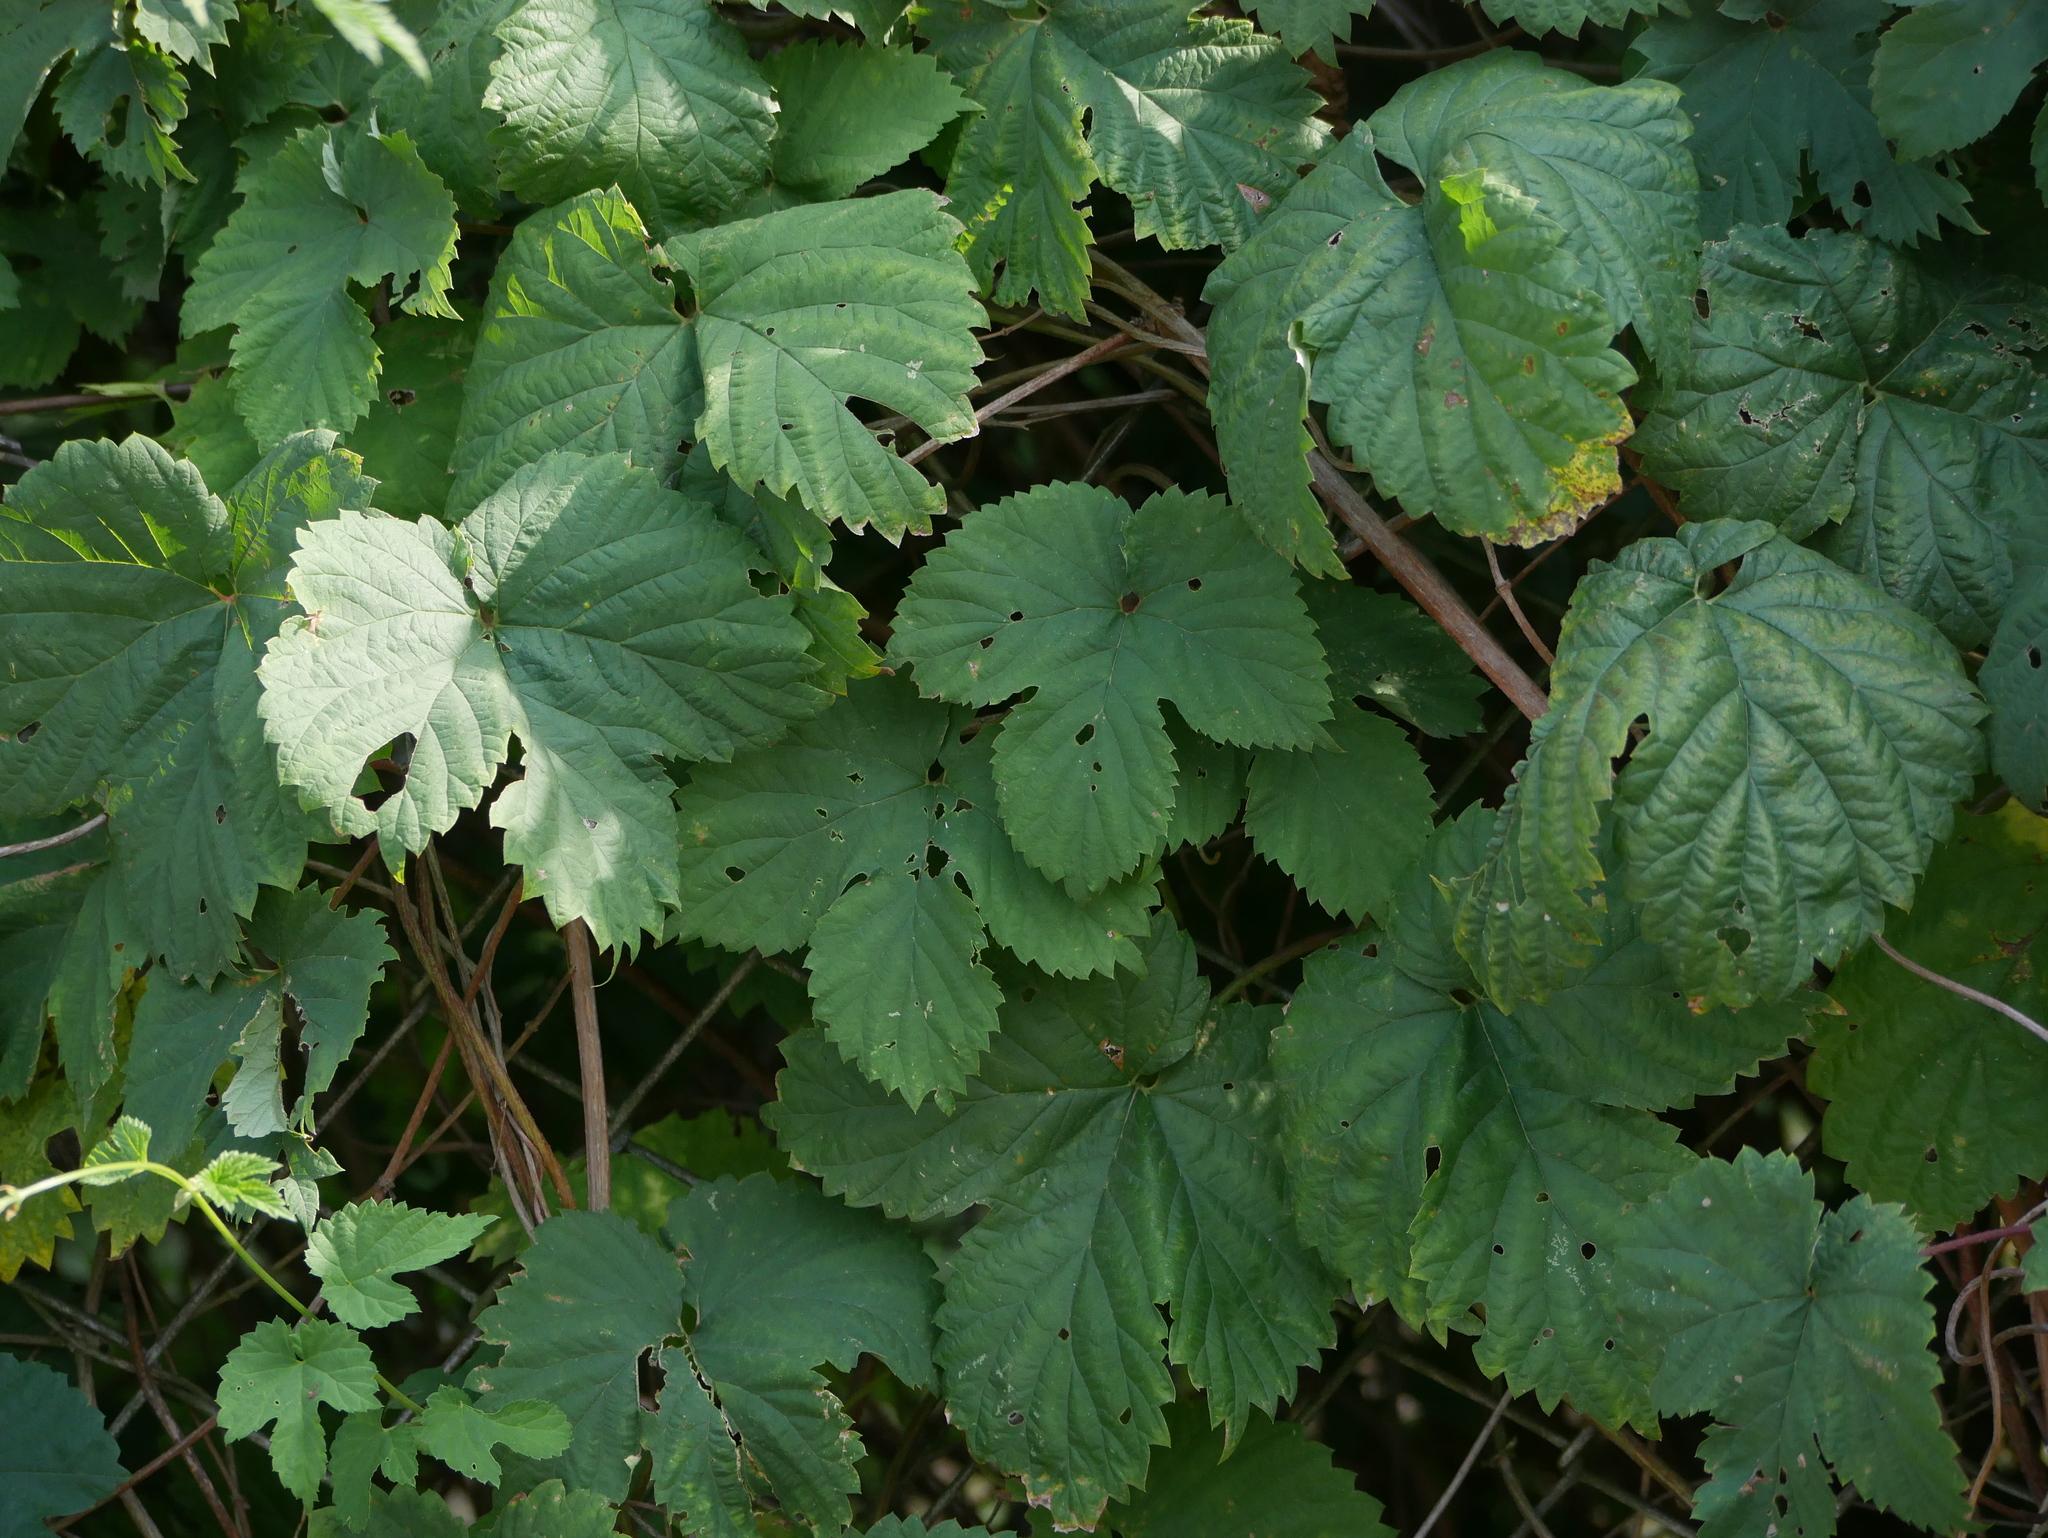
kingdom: Plantae
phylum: Tracheophyta
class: Magnoliopsida
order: Rosales
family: Cannabaceae
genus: Humulus
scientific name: Humulus lupulus
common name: Hop
